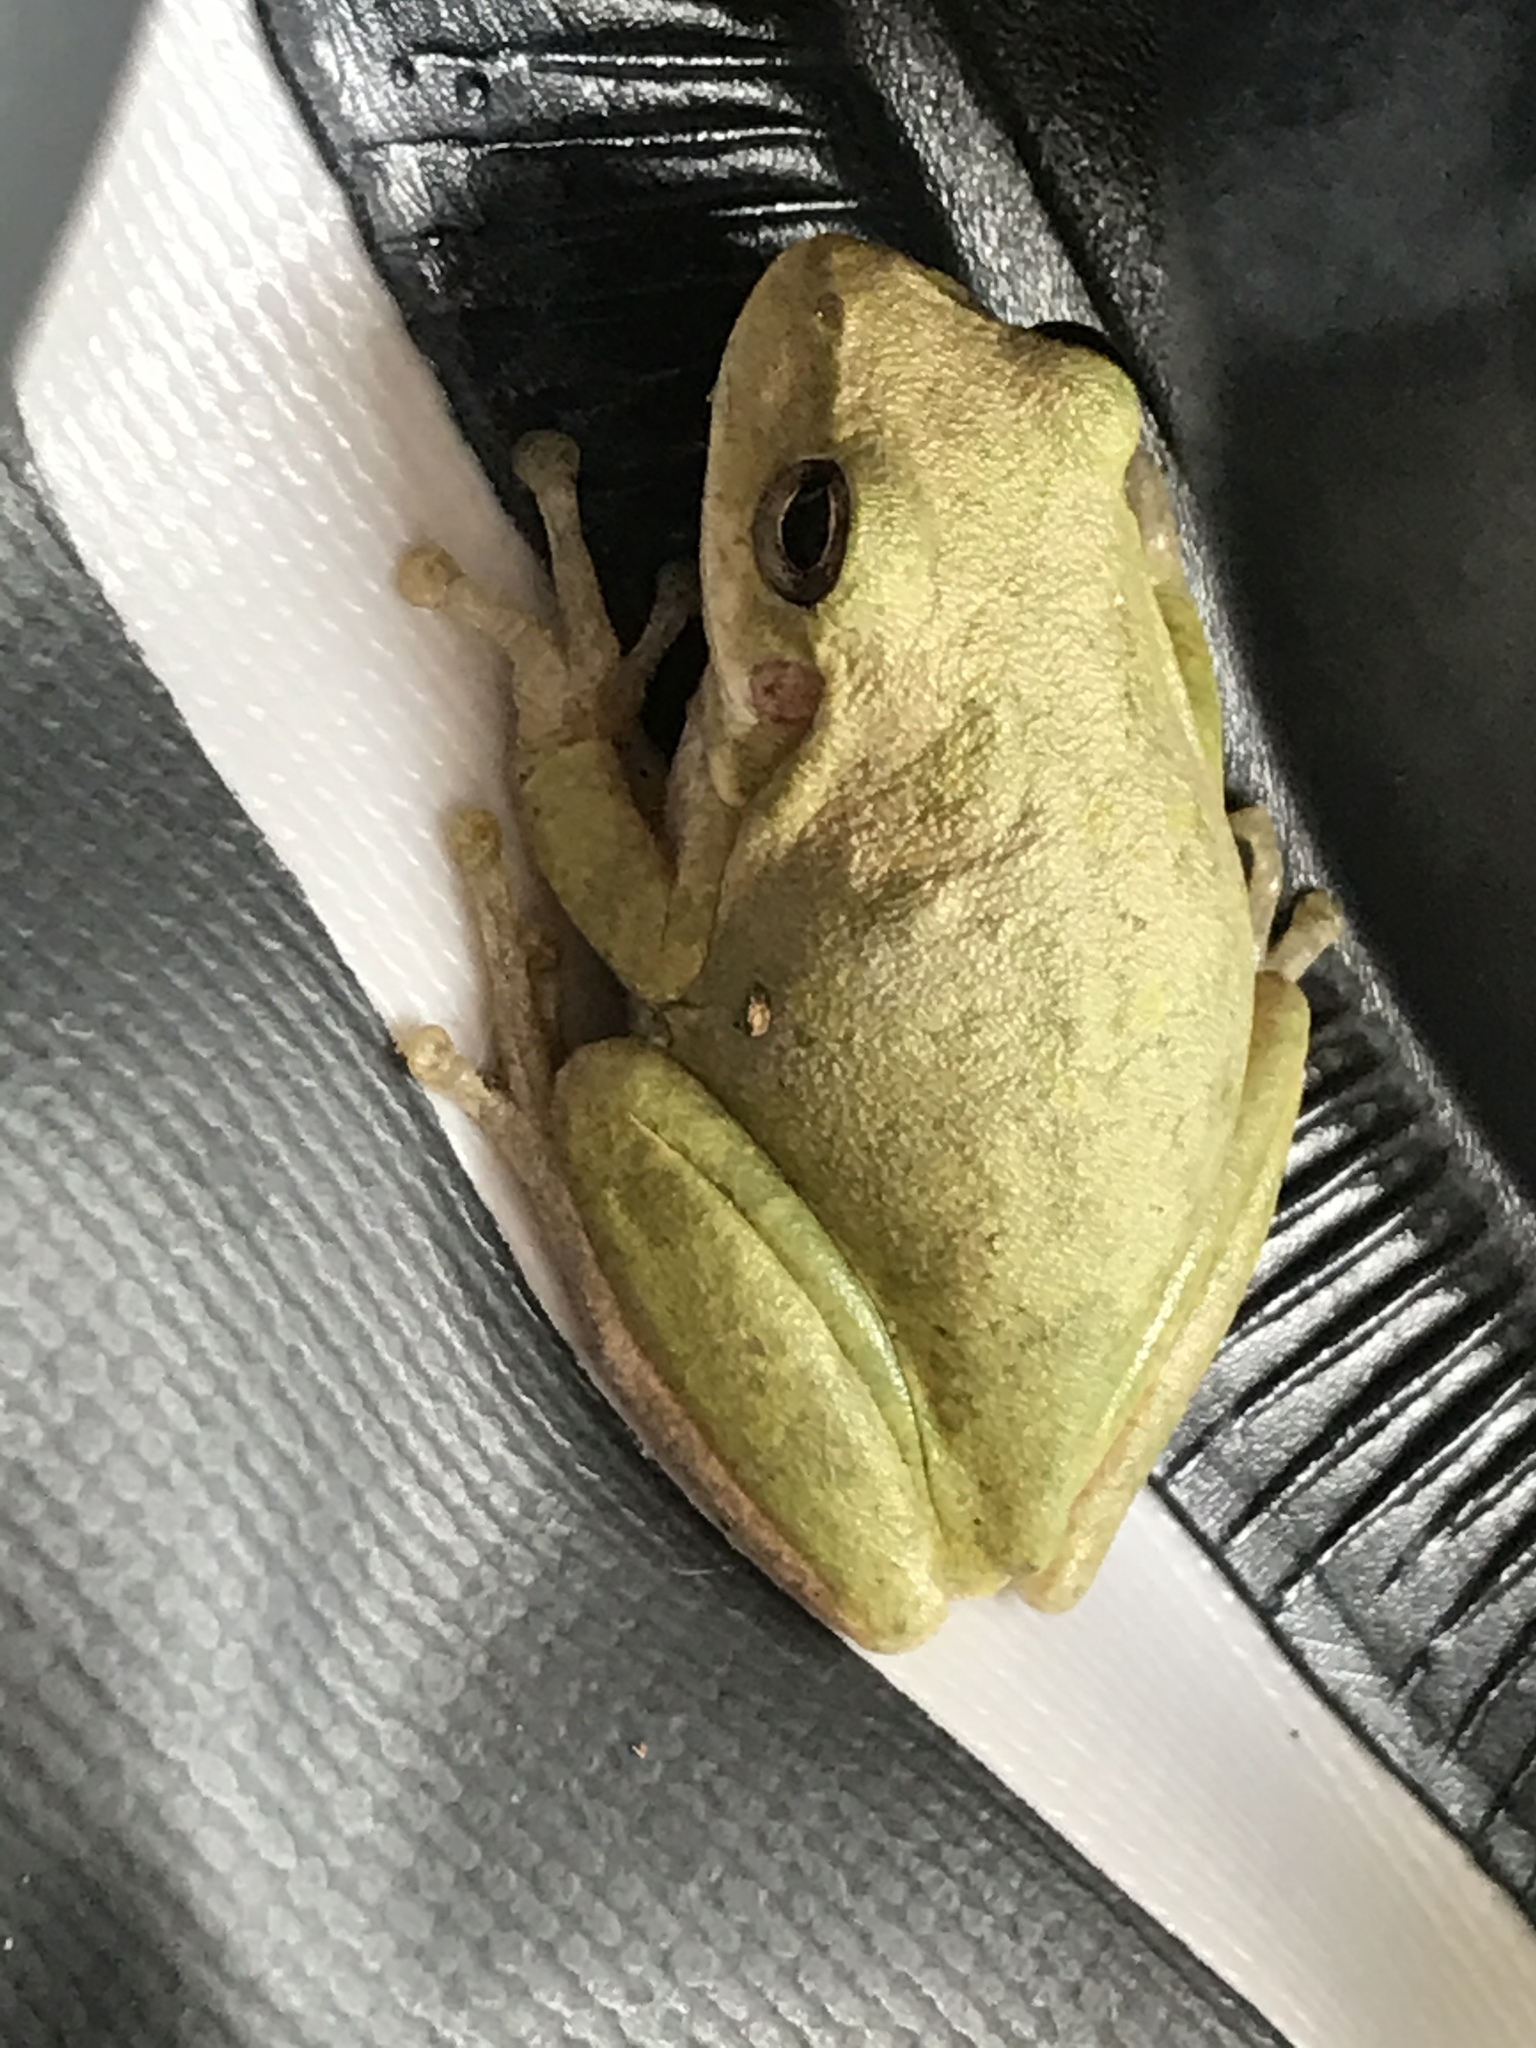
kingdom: Animalia
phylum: Chordata
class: Amphibia
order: Anura
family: Hylidae
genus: Dryophytes
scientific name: Dryophytes squirellus
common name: Squirrel treefrog
